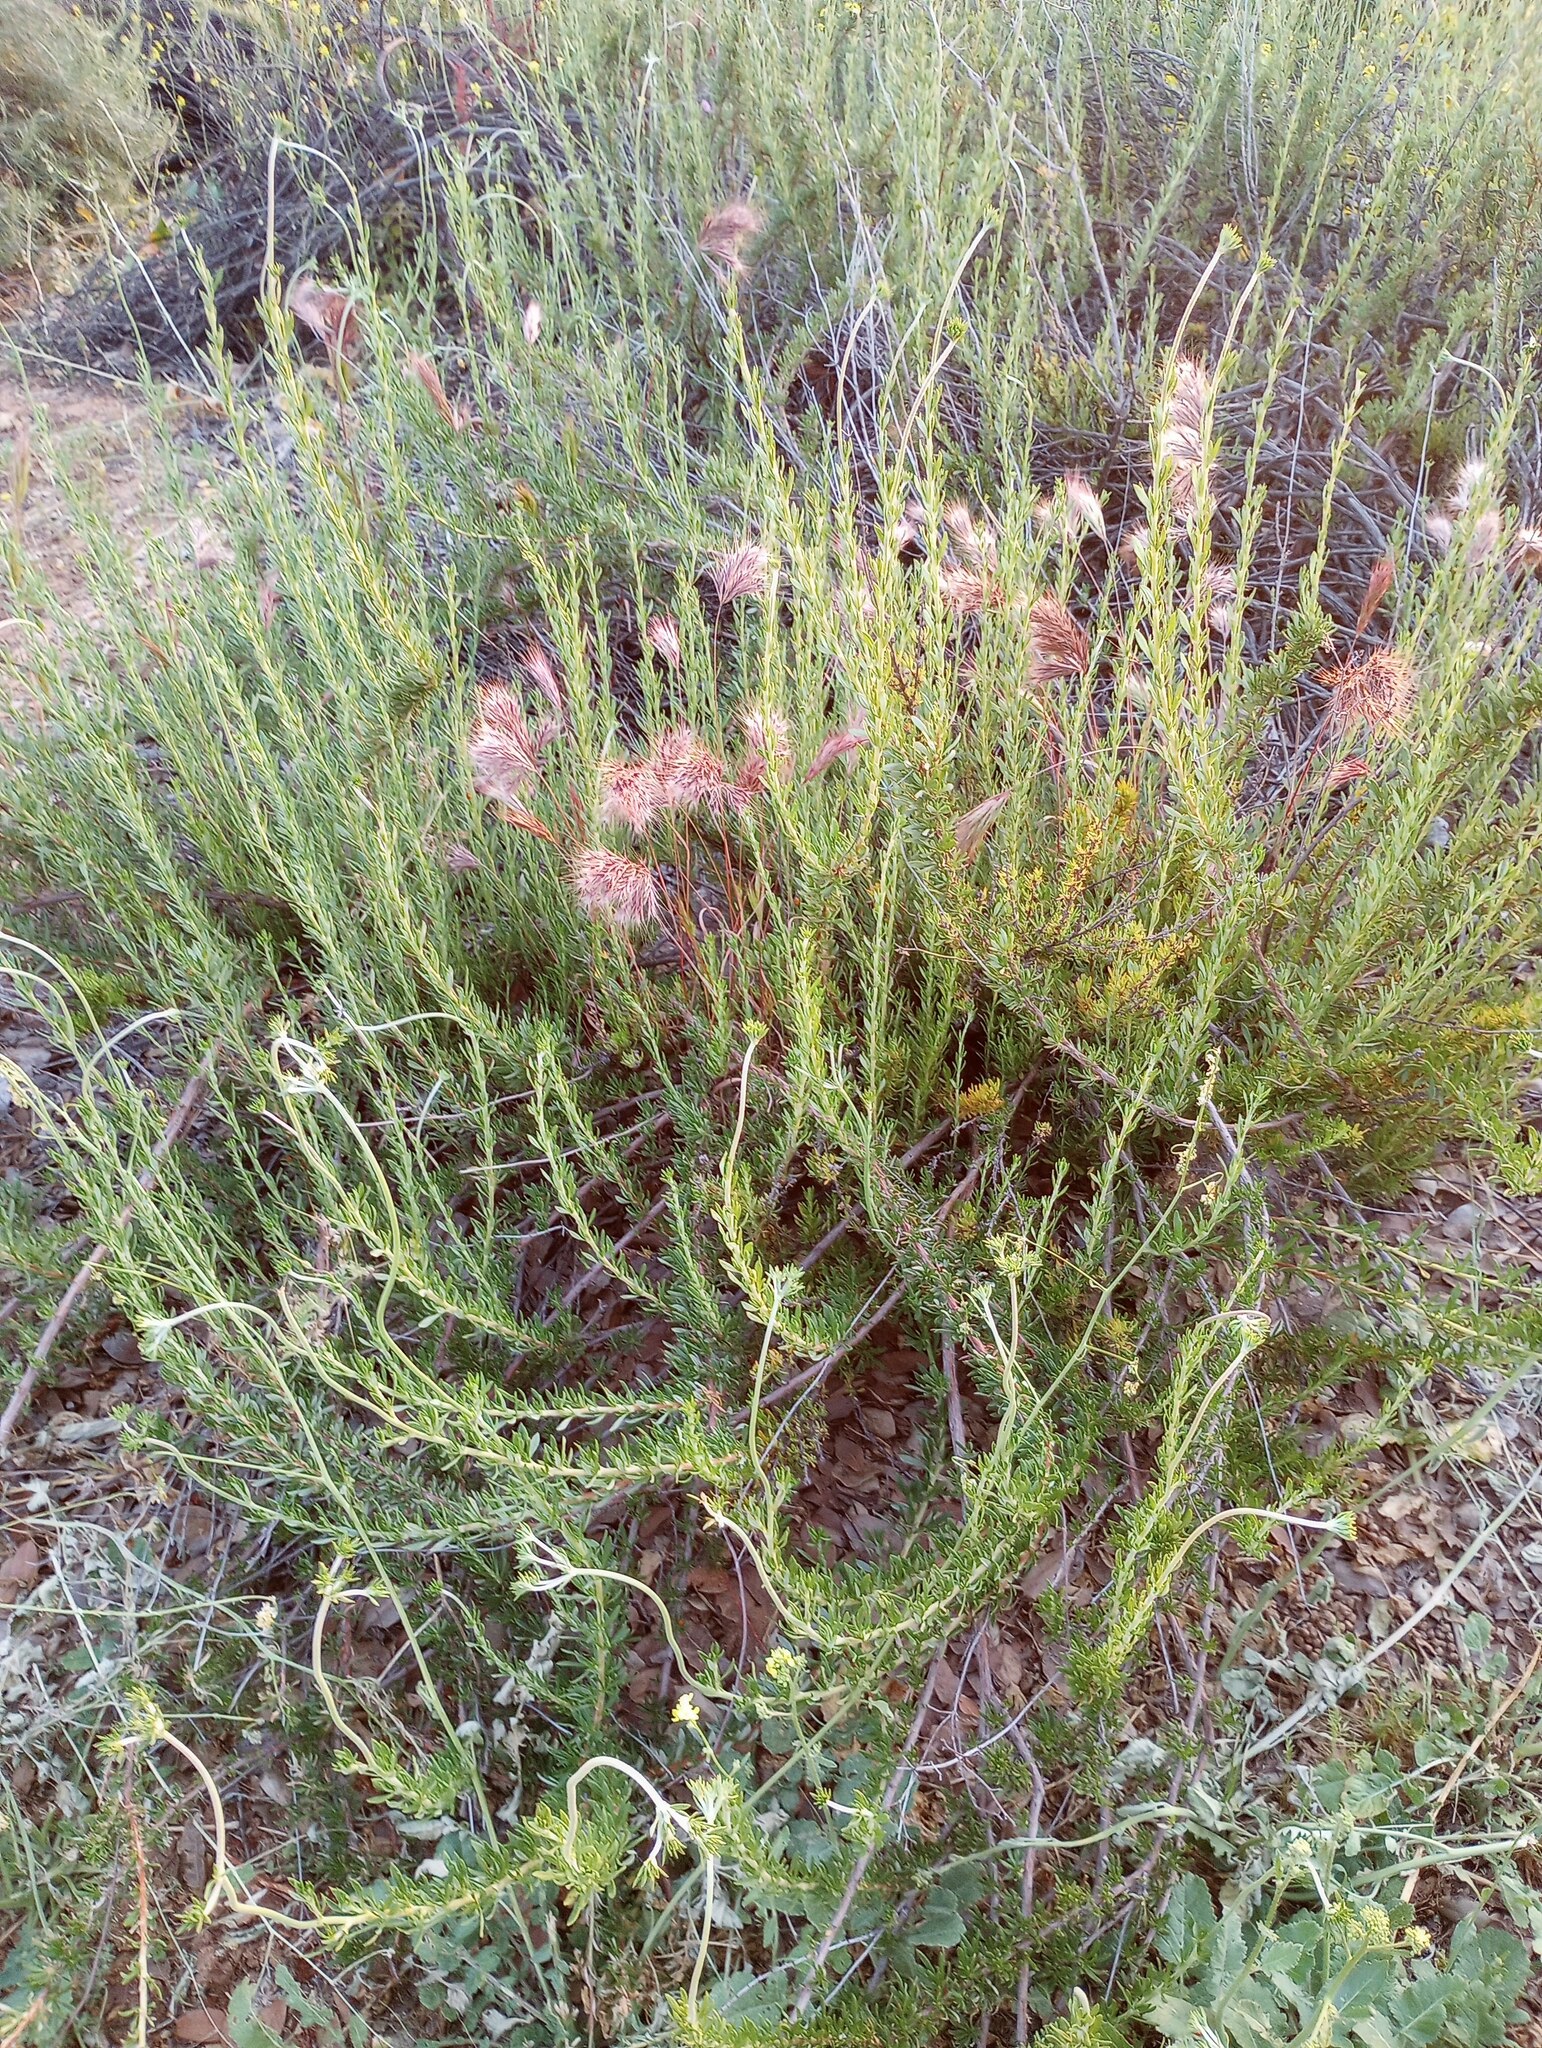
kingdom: Plantae
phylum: Tracheophyta
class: Liliopsida
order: Poales
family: Poaceae
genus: Bromus
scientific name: Bromus rubens
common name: Red brome
